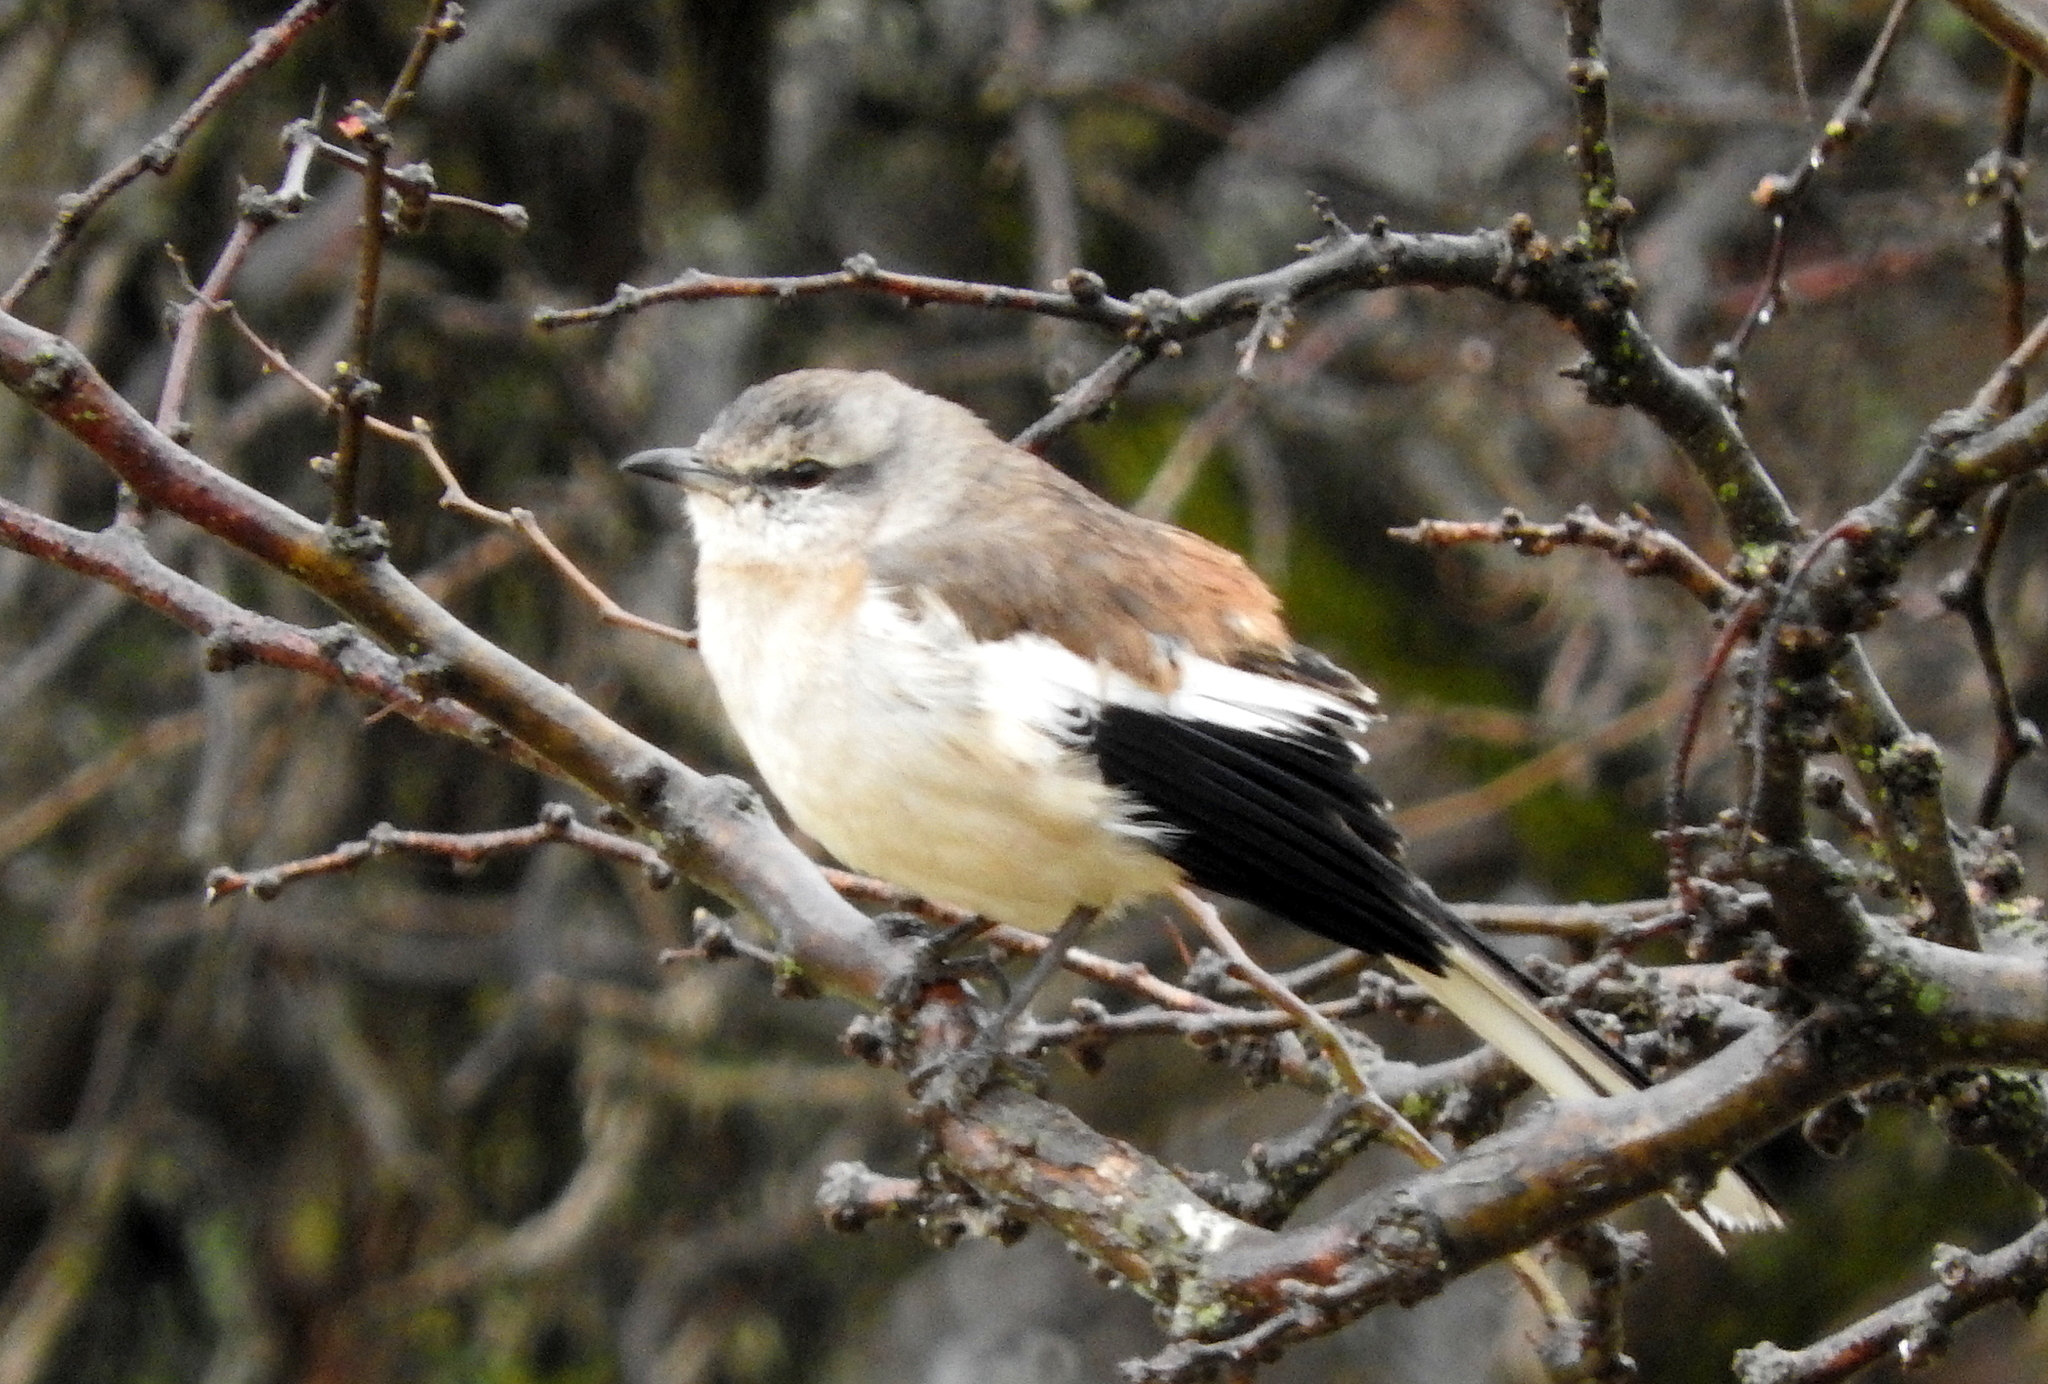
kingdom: Animalia
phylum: Chordata
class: Aves
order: Passeriformes
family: Mimidae
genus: Mimus
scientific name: Mimus triurus
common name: White-banded mockingbird
